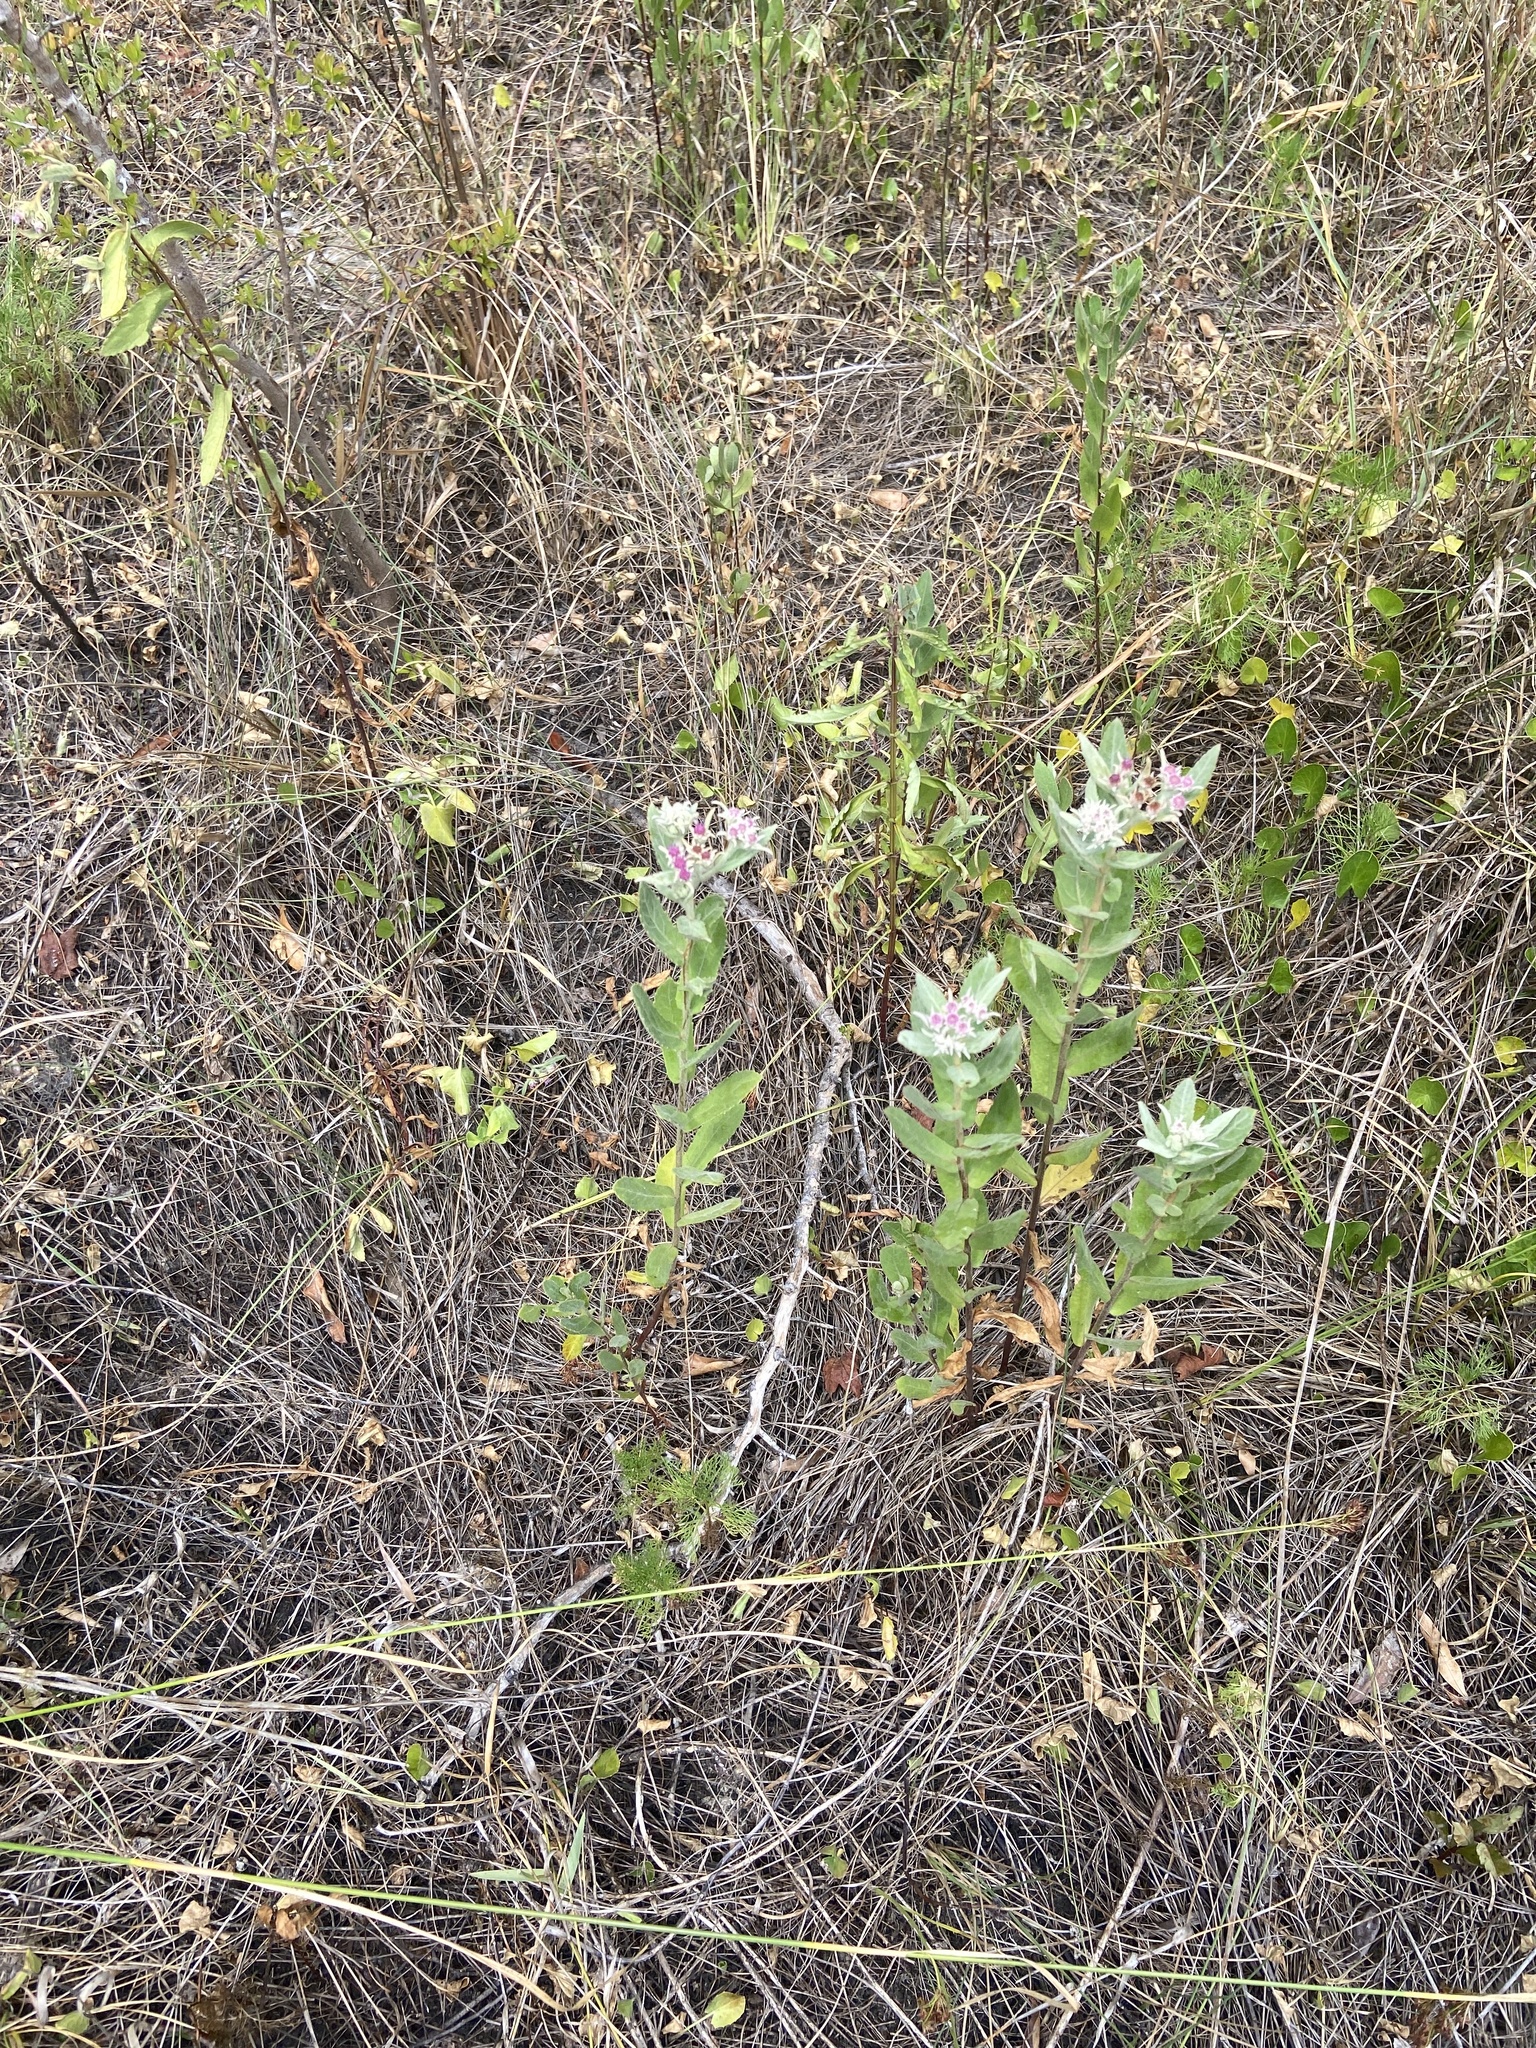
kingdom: Plantae
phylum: Tracheophyta
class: Magnoliopsida
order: Asterales
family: Asteraceae
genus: Pluchea
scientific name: Pluchea baccharis
